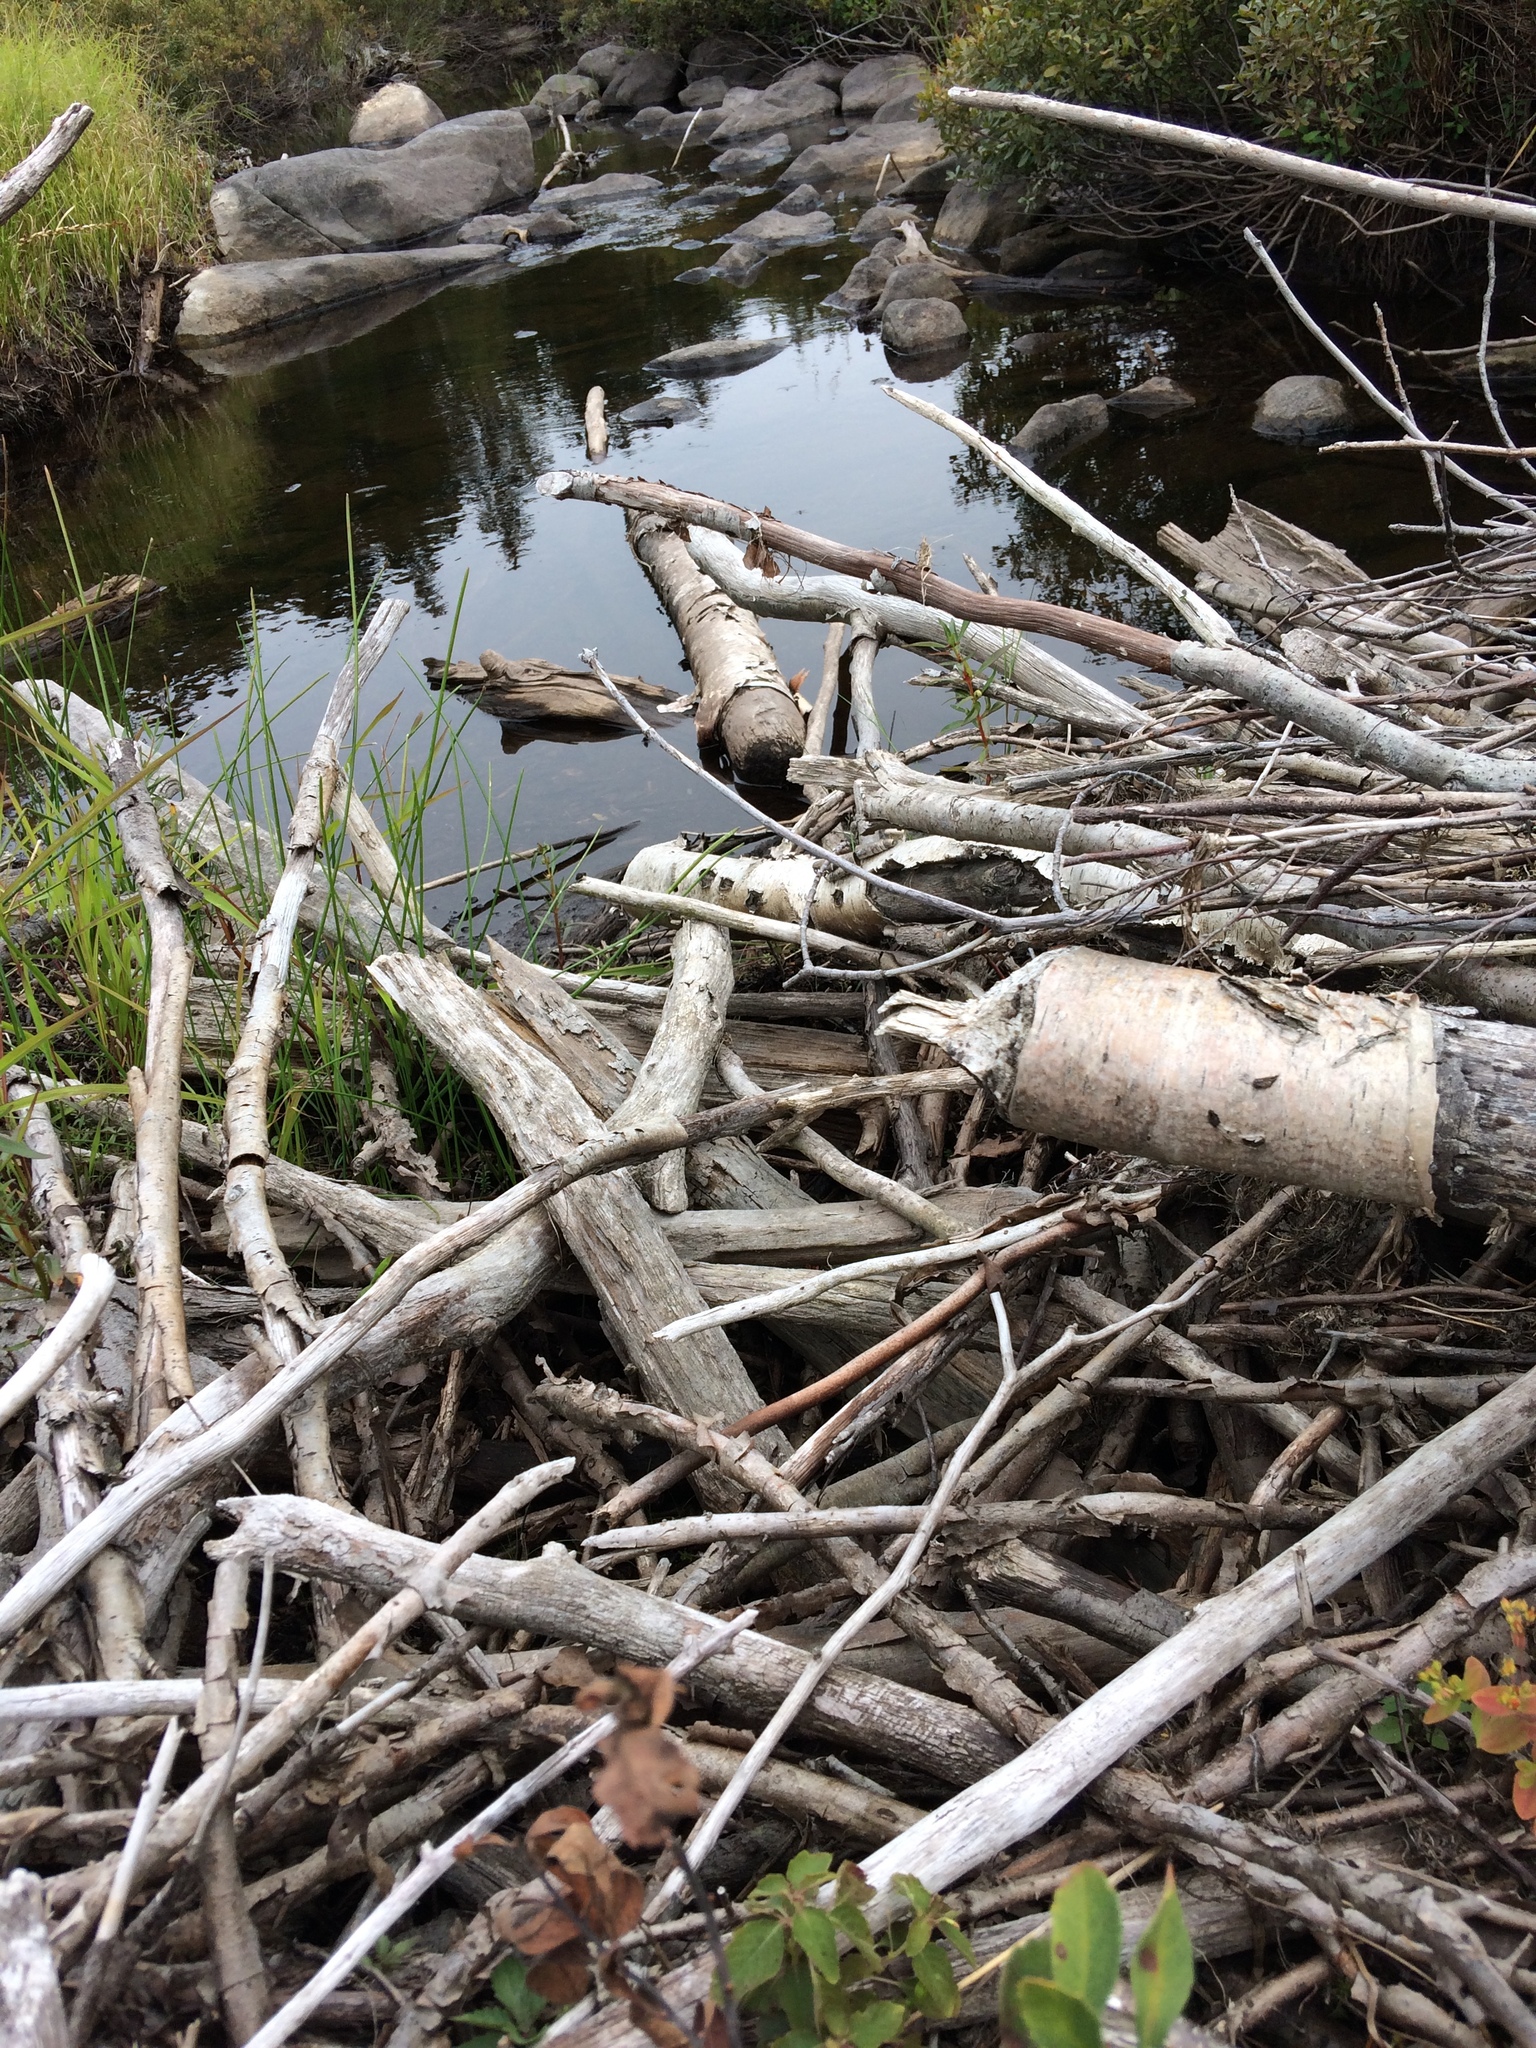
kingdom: Animalia
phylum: Chordata
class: Mammalia
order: Rodentia
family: Castoridae
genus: Castor
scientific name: Castor canadensis
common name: American beaver
